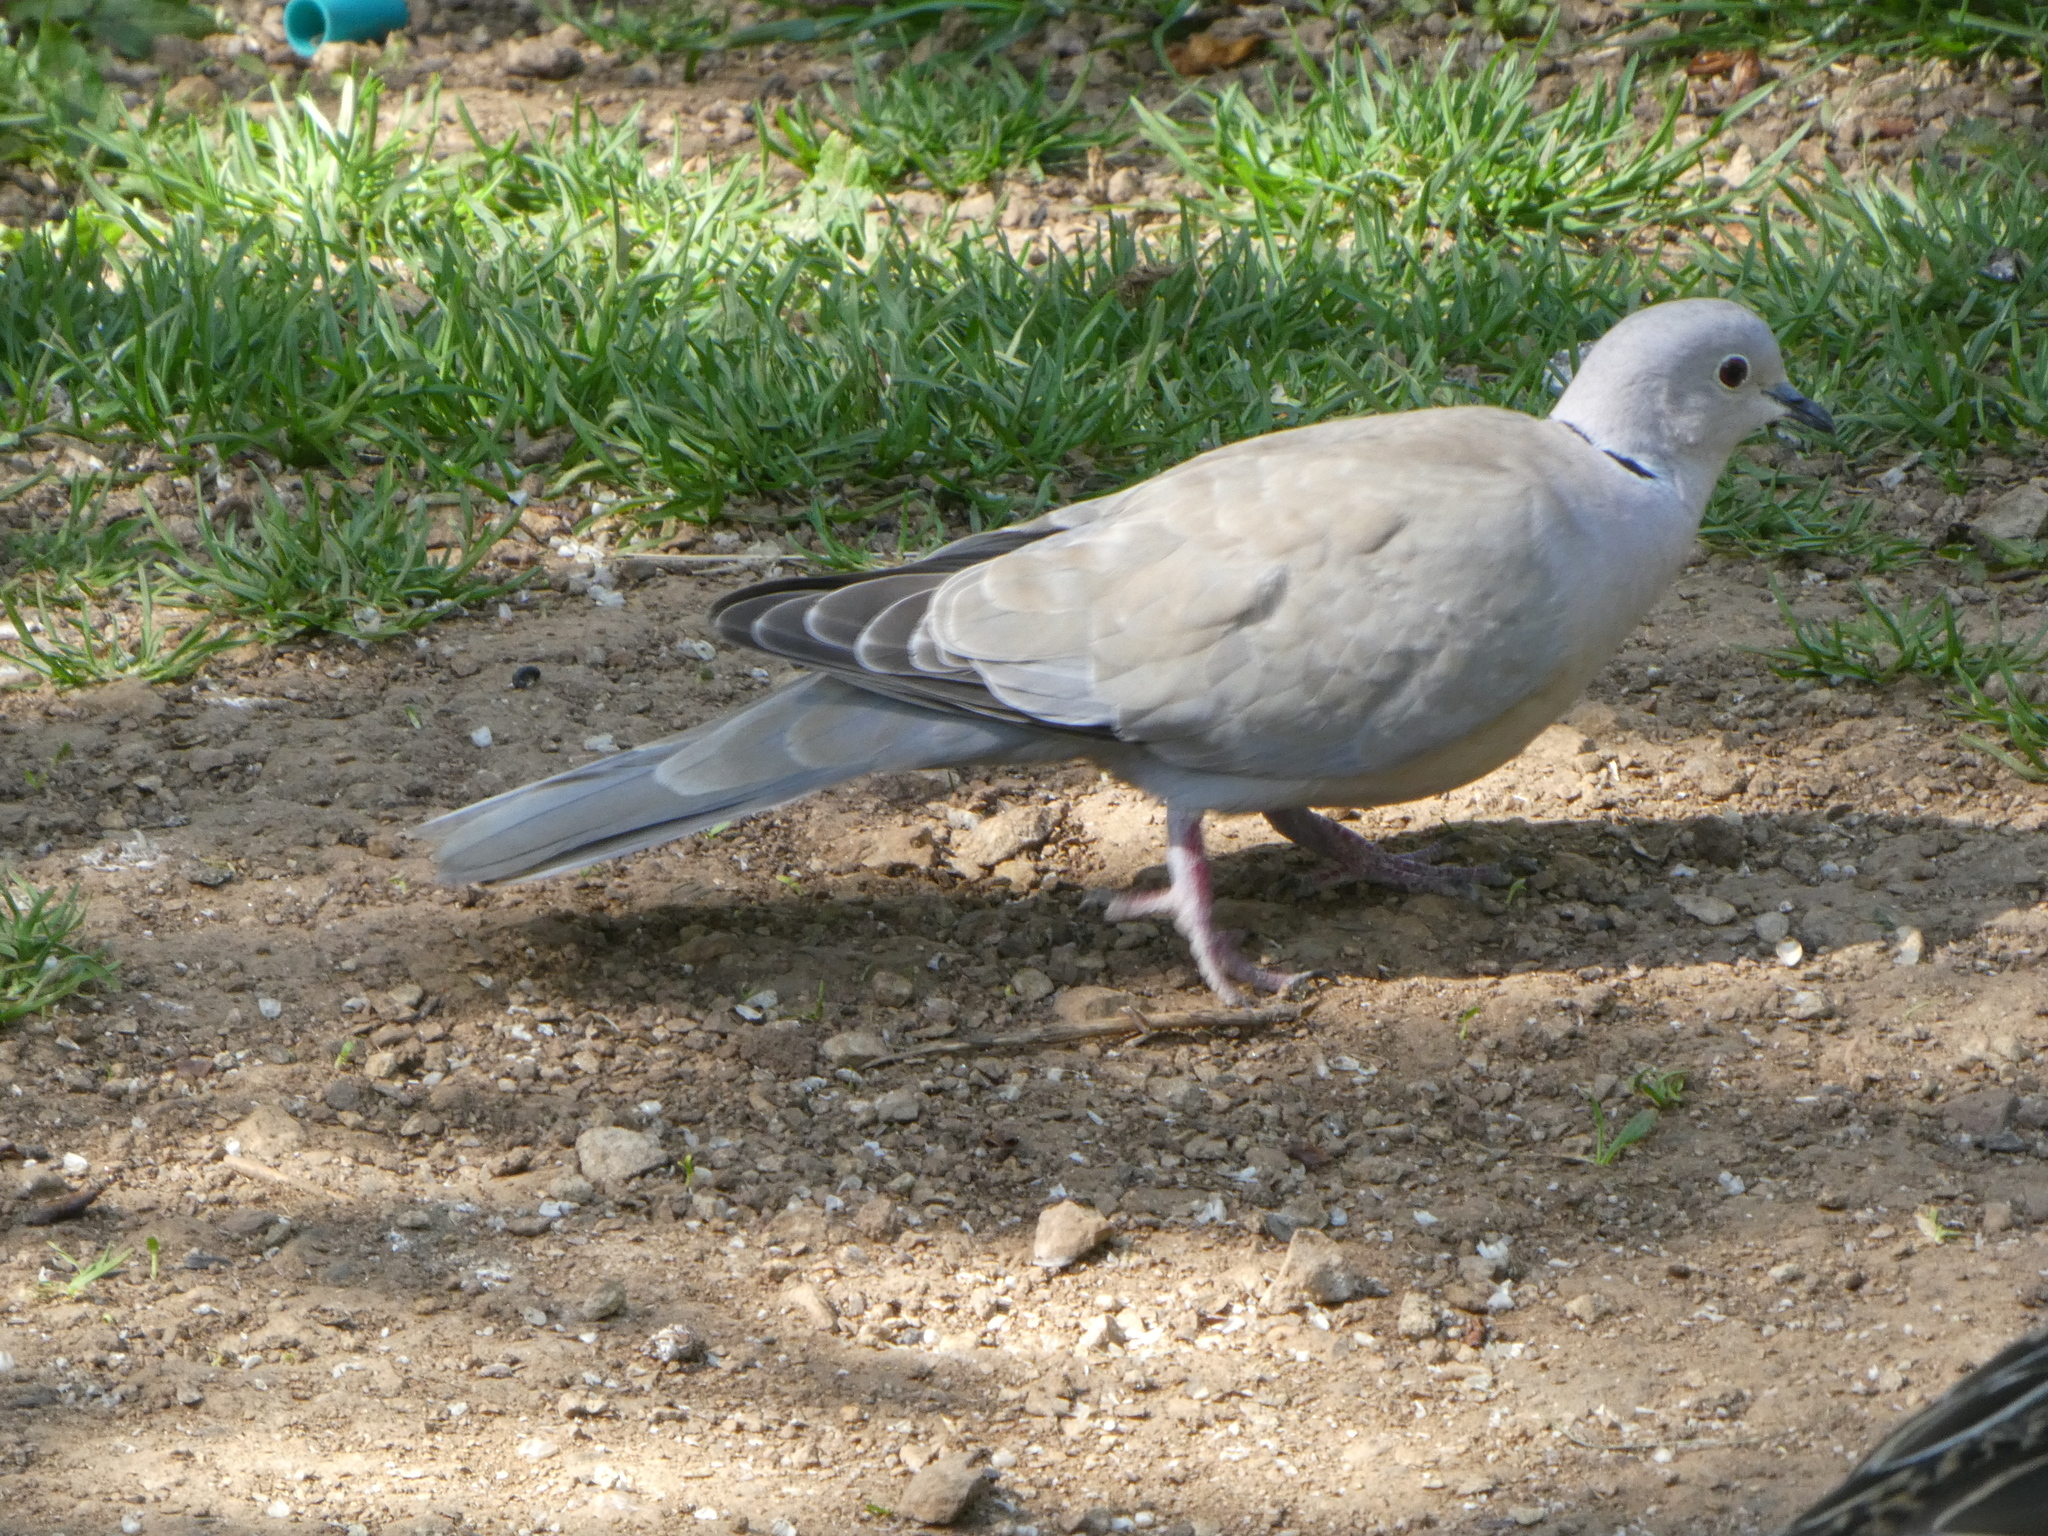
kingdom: Animalia
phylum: Chordata
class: Aves
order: Columbiformes
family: Columbidae
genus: Streptopelia
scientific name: Streptopelia decaocto
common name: Eurasian collared dove
